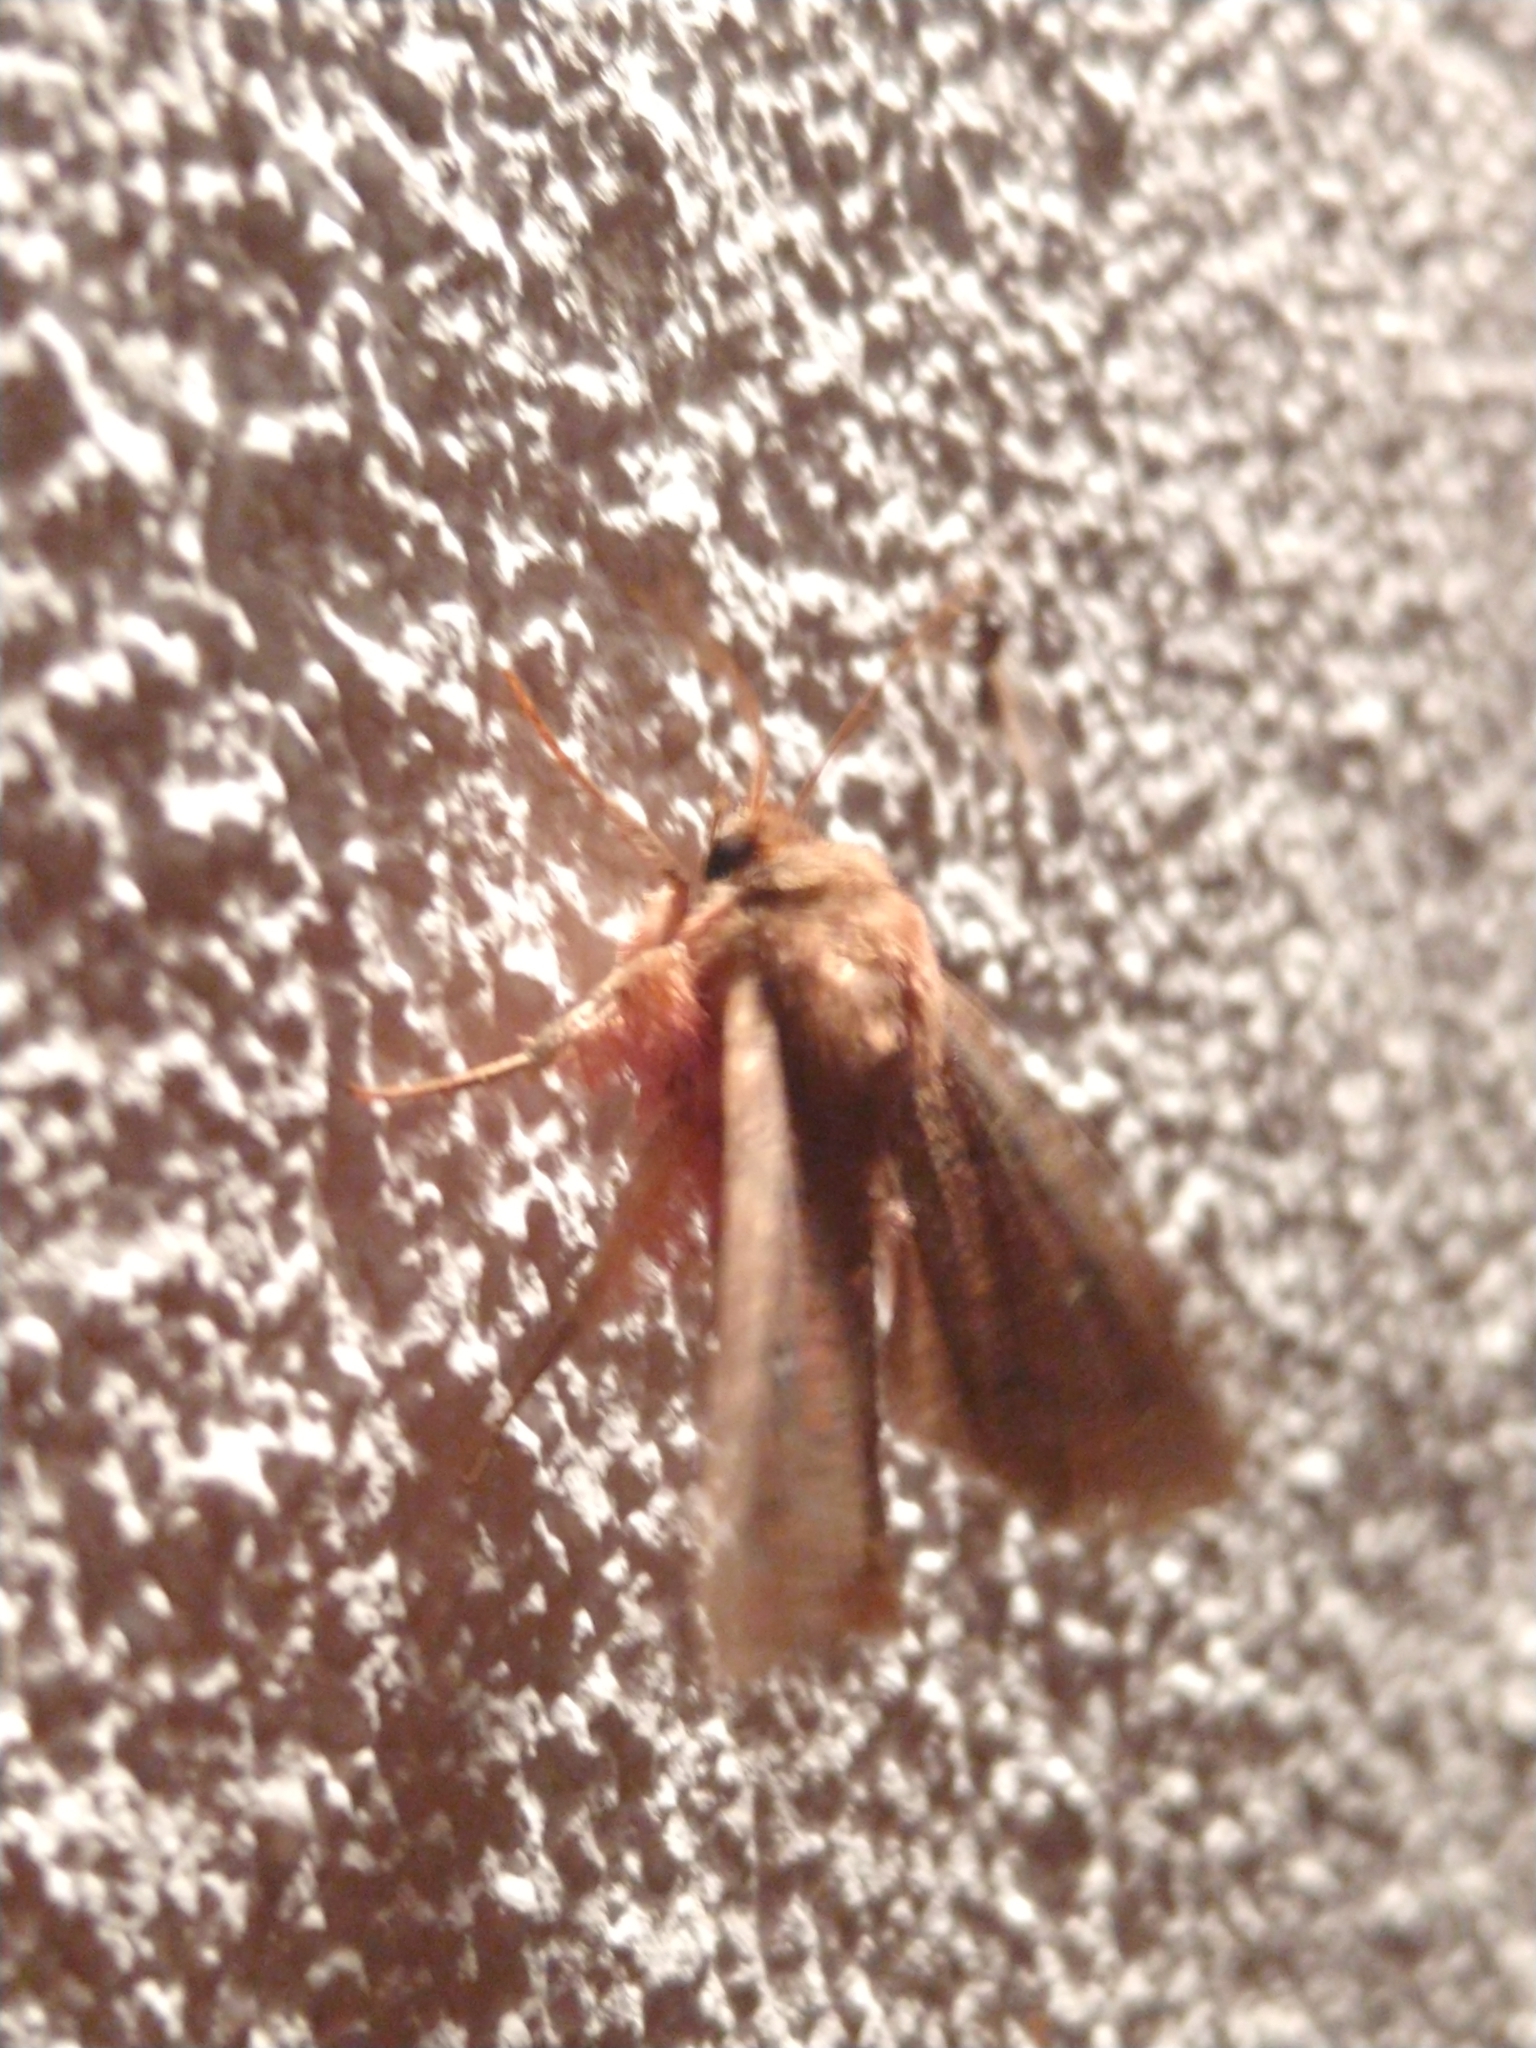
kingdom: Animalia
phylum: Arthropoda
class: Insecta
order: Lepidoptera
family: Noctuidae
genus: Mythimna
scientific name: Mythimna turca
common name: Double line
